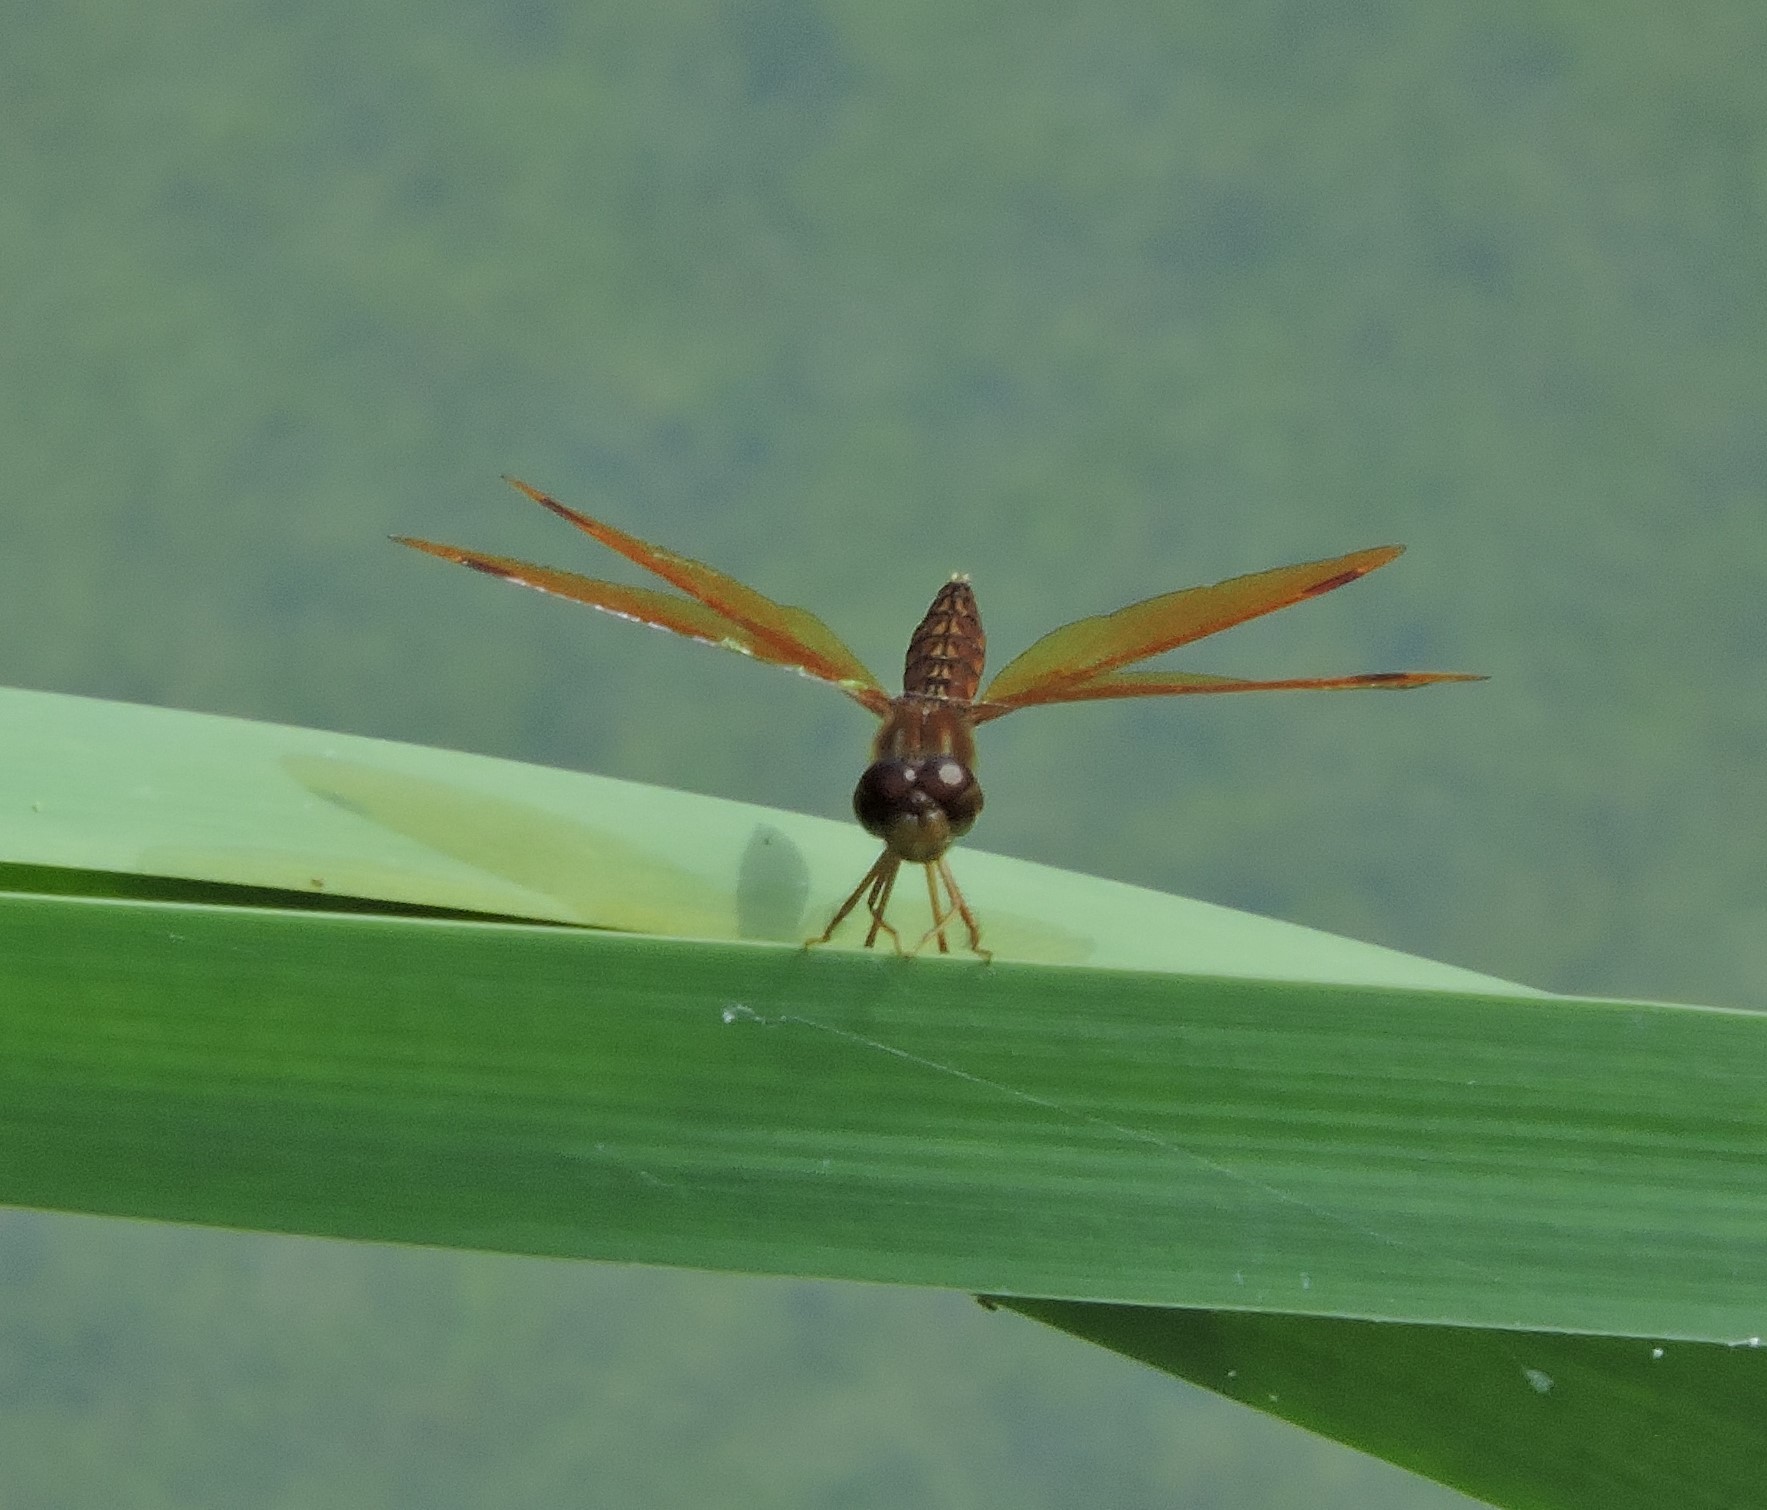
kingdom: Animalia
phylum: Arthropoda
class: Insecta
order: Odonata
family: Libellulidae
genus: Perithemis
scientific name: Perithemis tenera
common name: Eastern amberwing
